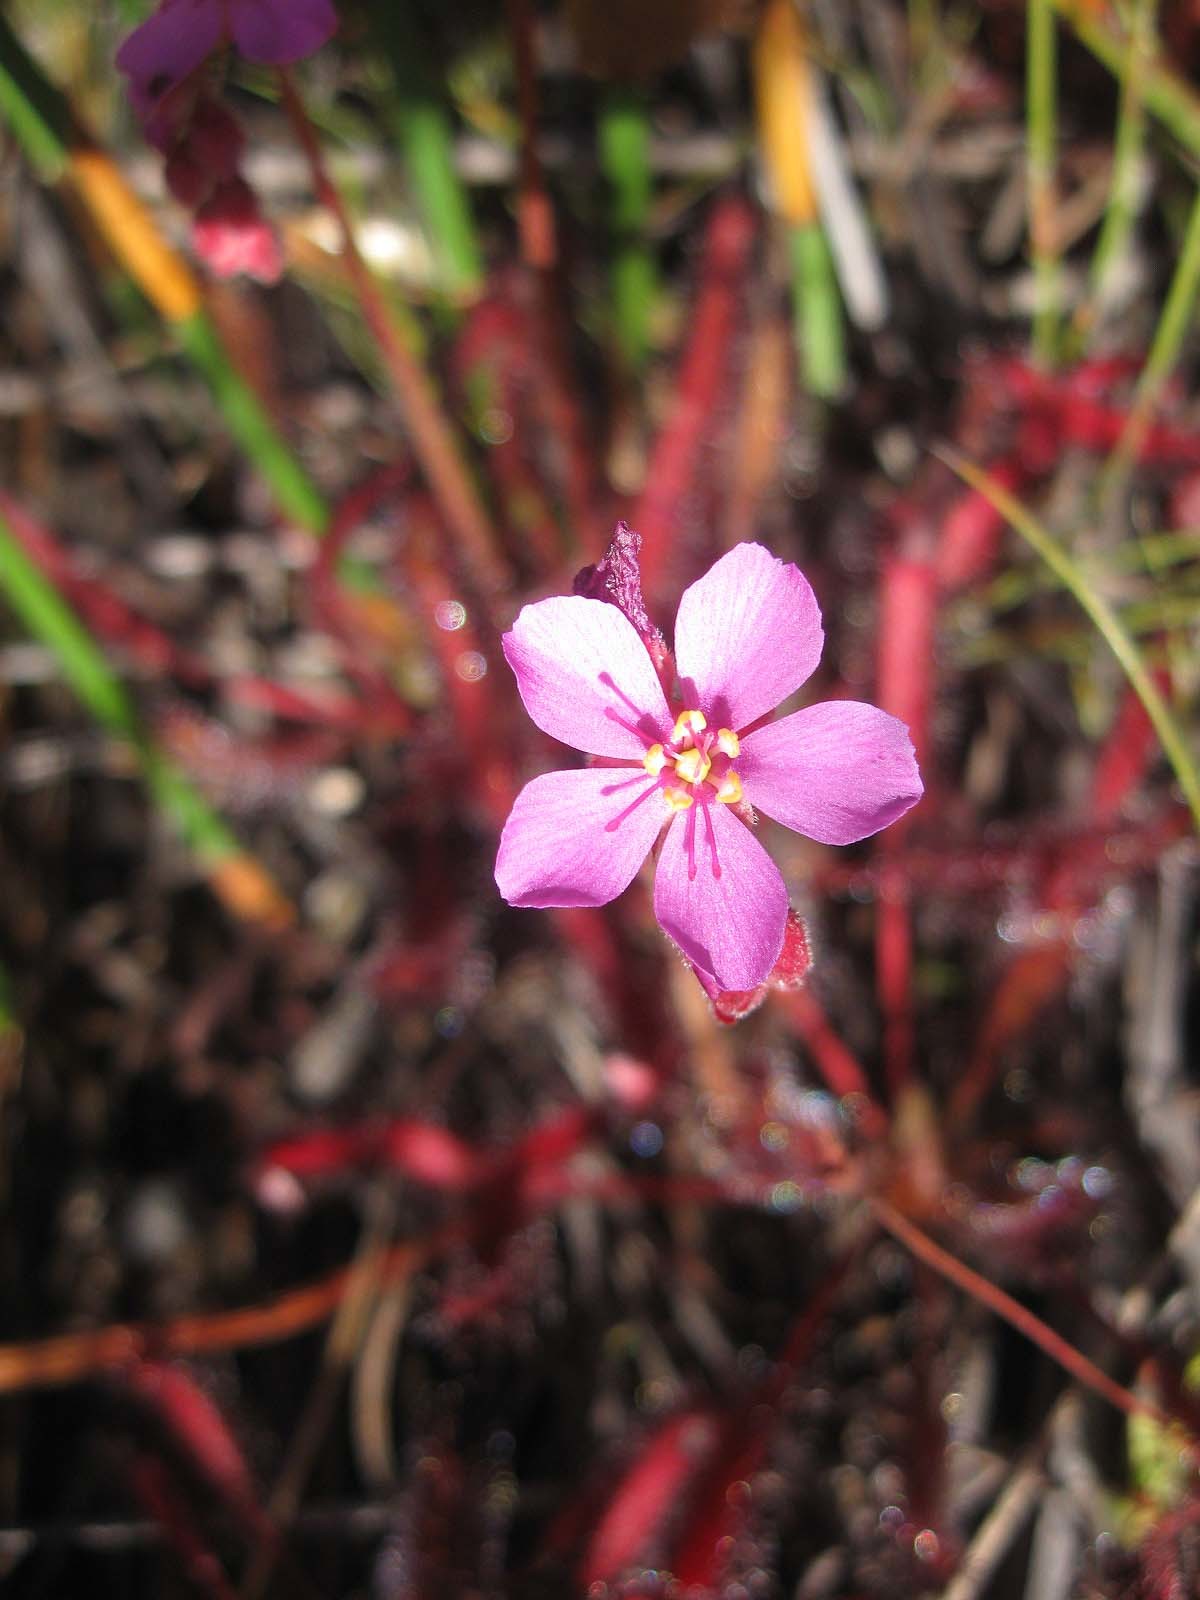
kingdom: Plantae
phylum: Tracheophyta
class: Magnoliopsida
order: Caryophyllales
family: Droseraceae
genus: Drosera
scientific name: Drosera capensis
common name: Cape sundew
